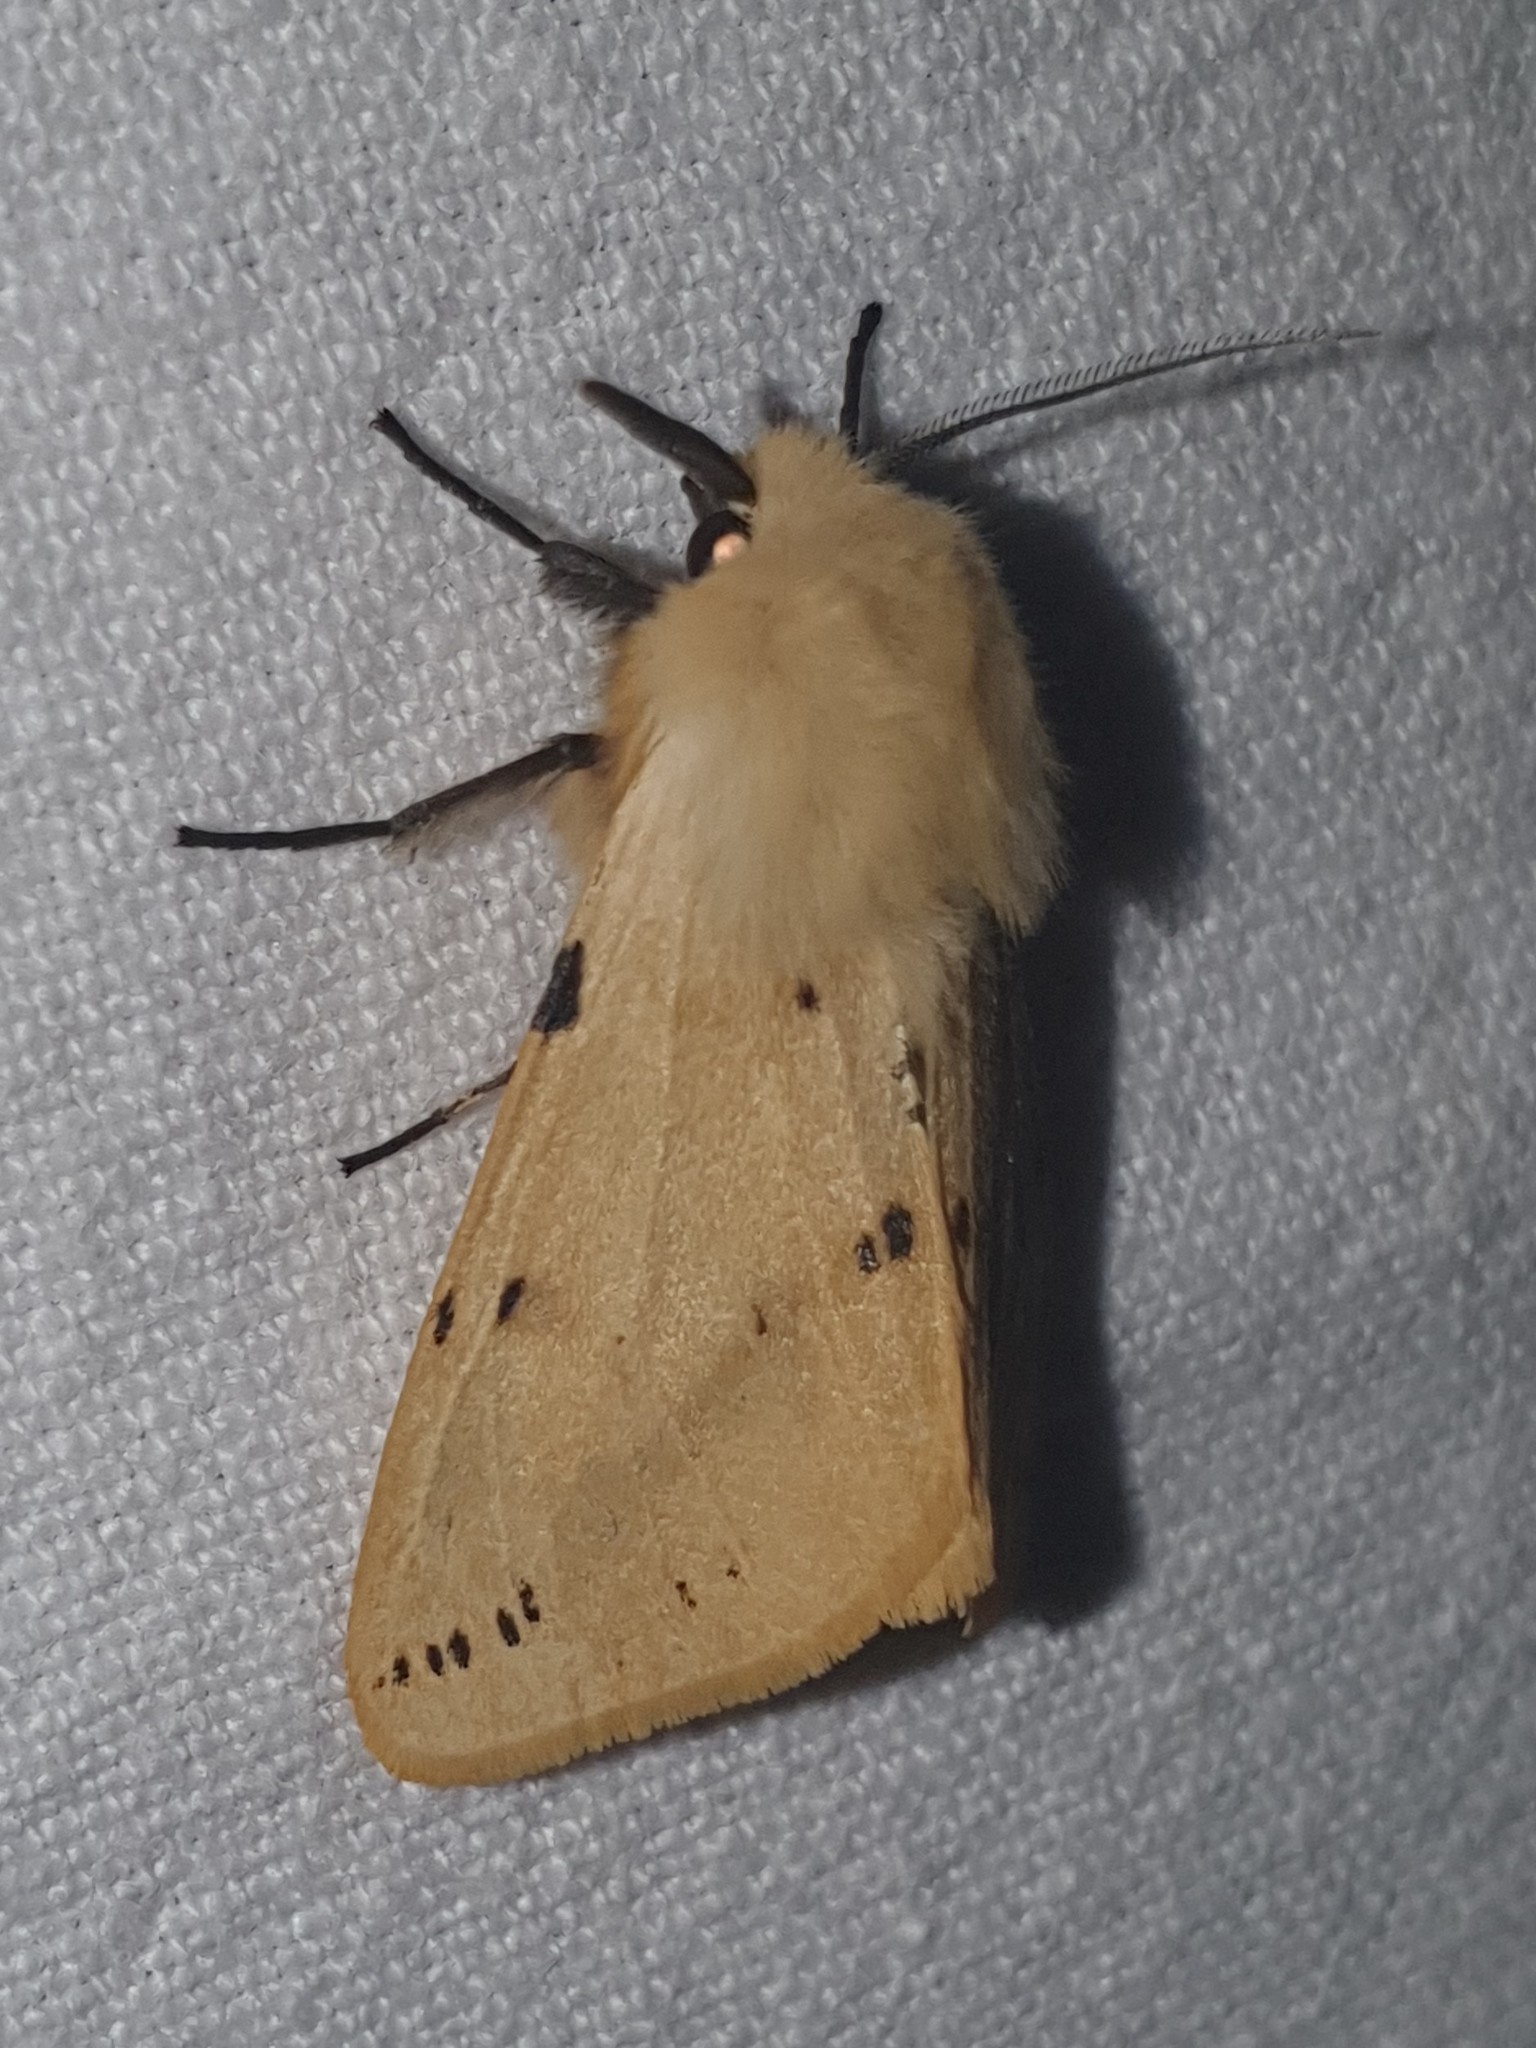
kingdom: Animalia
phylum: Arthropoda
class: Insecta
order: Lepidoptera
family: Erebidae
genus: Spilarctia
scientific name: Spilarctia lutea
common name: Buff ermine
